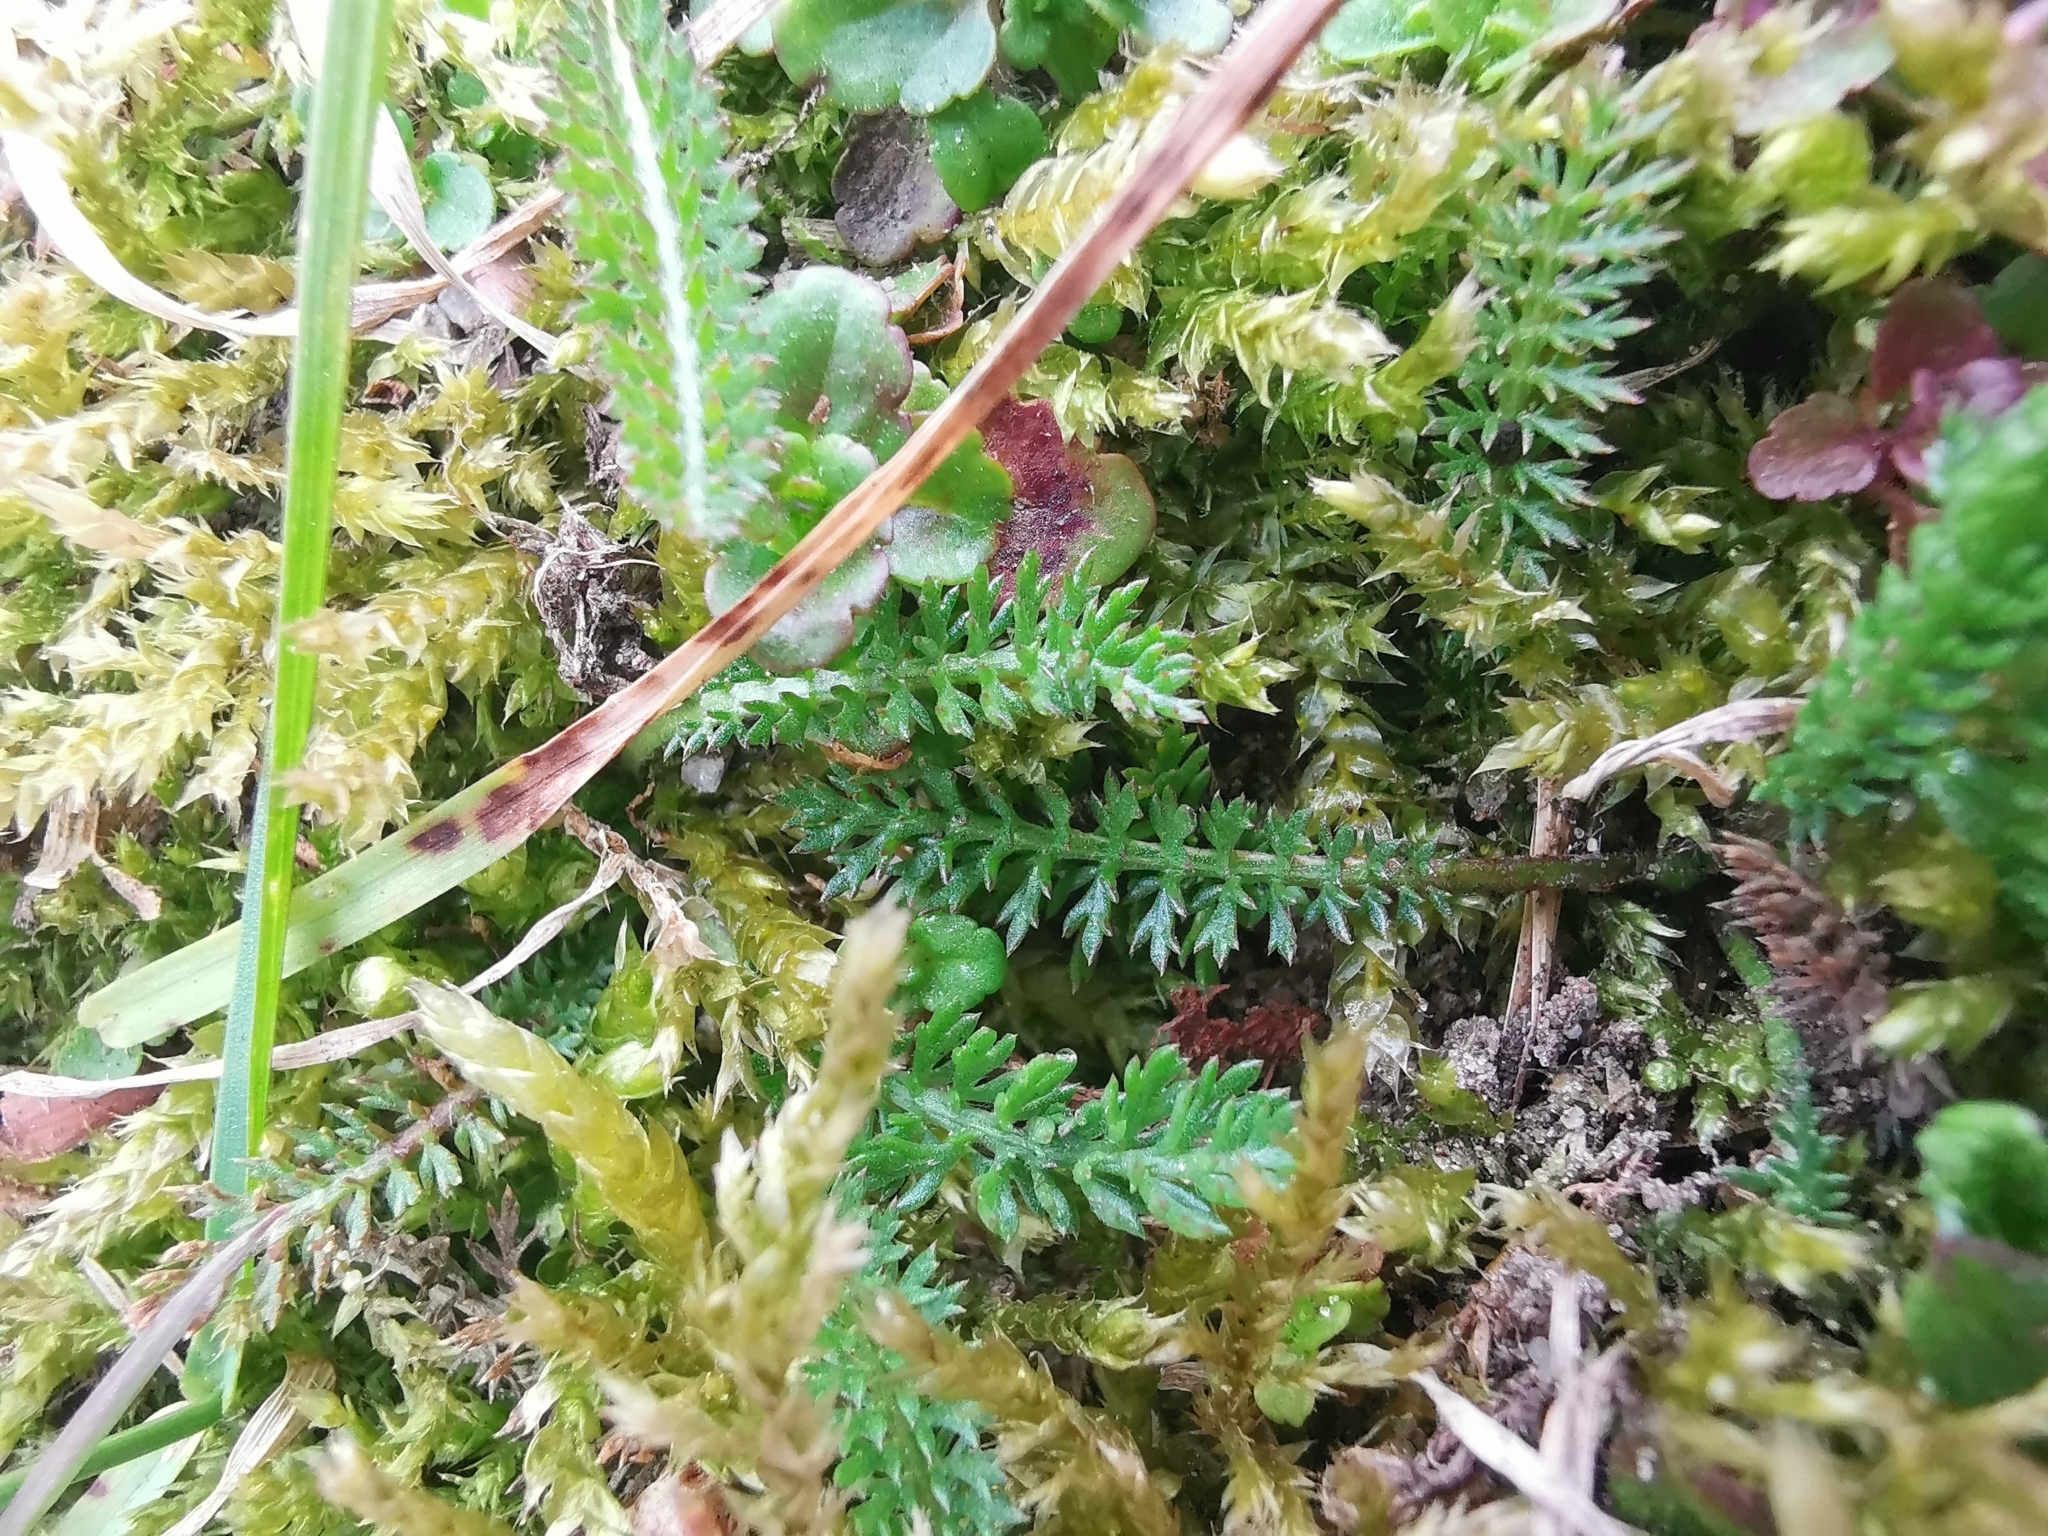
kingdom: Plantae
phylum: Tracheophyta
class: Magnoliopsida
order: Asterales
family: Asteraceae
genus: Achillea
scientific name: Achillea millefolium
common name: Yarrow
